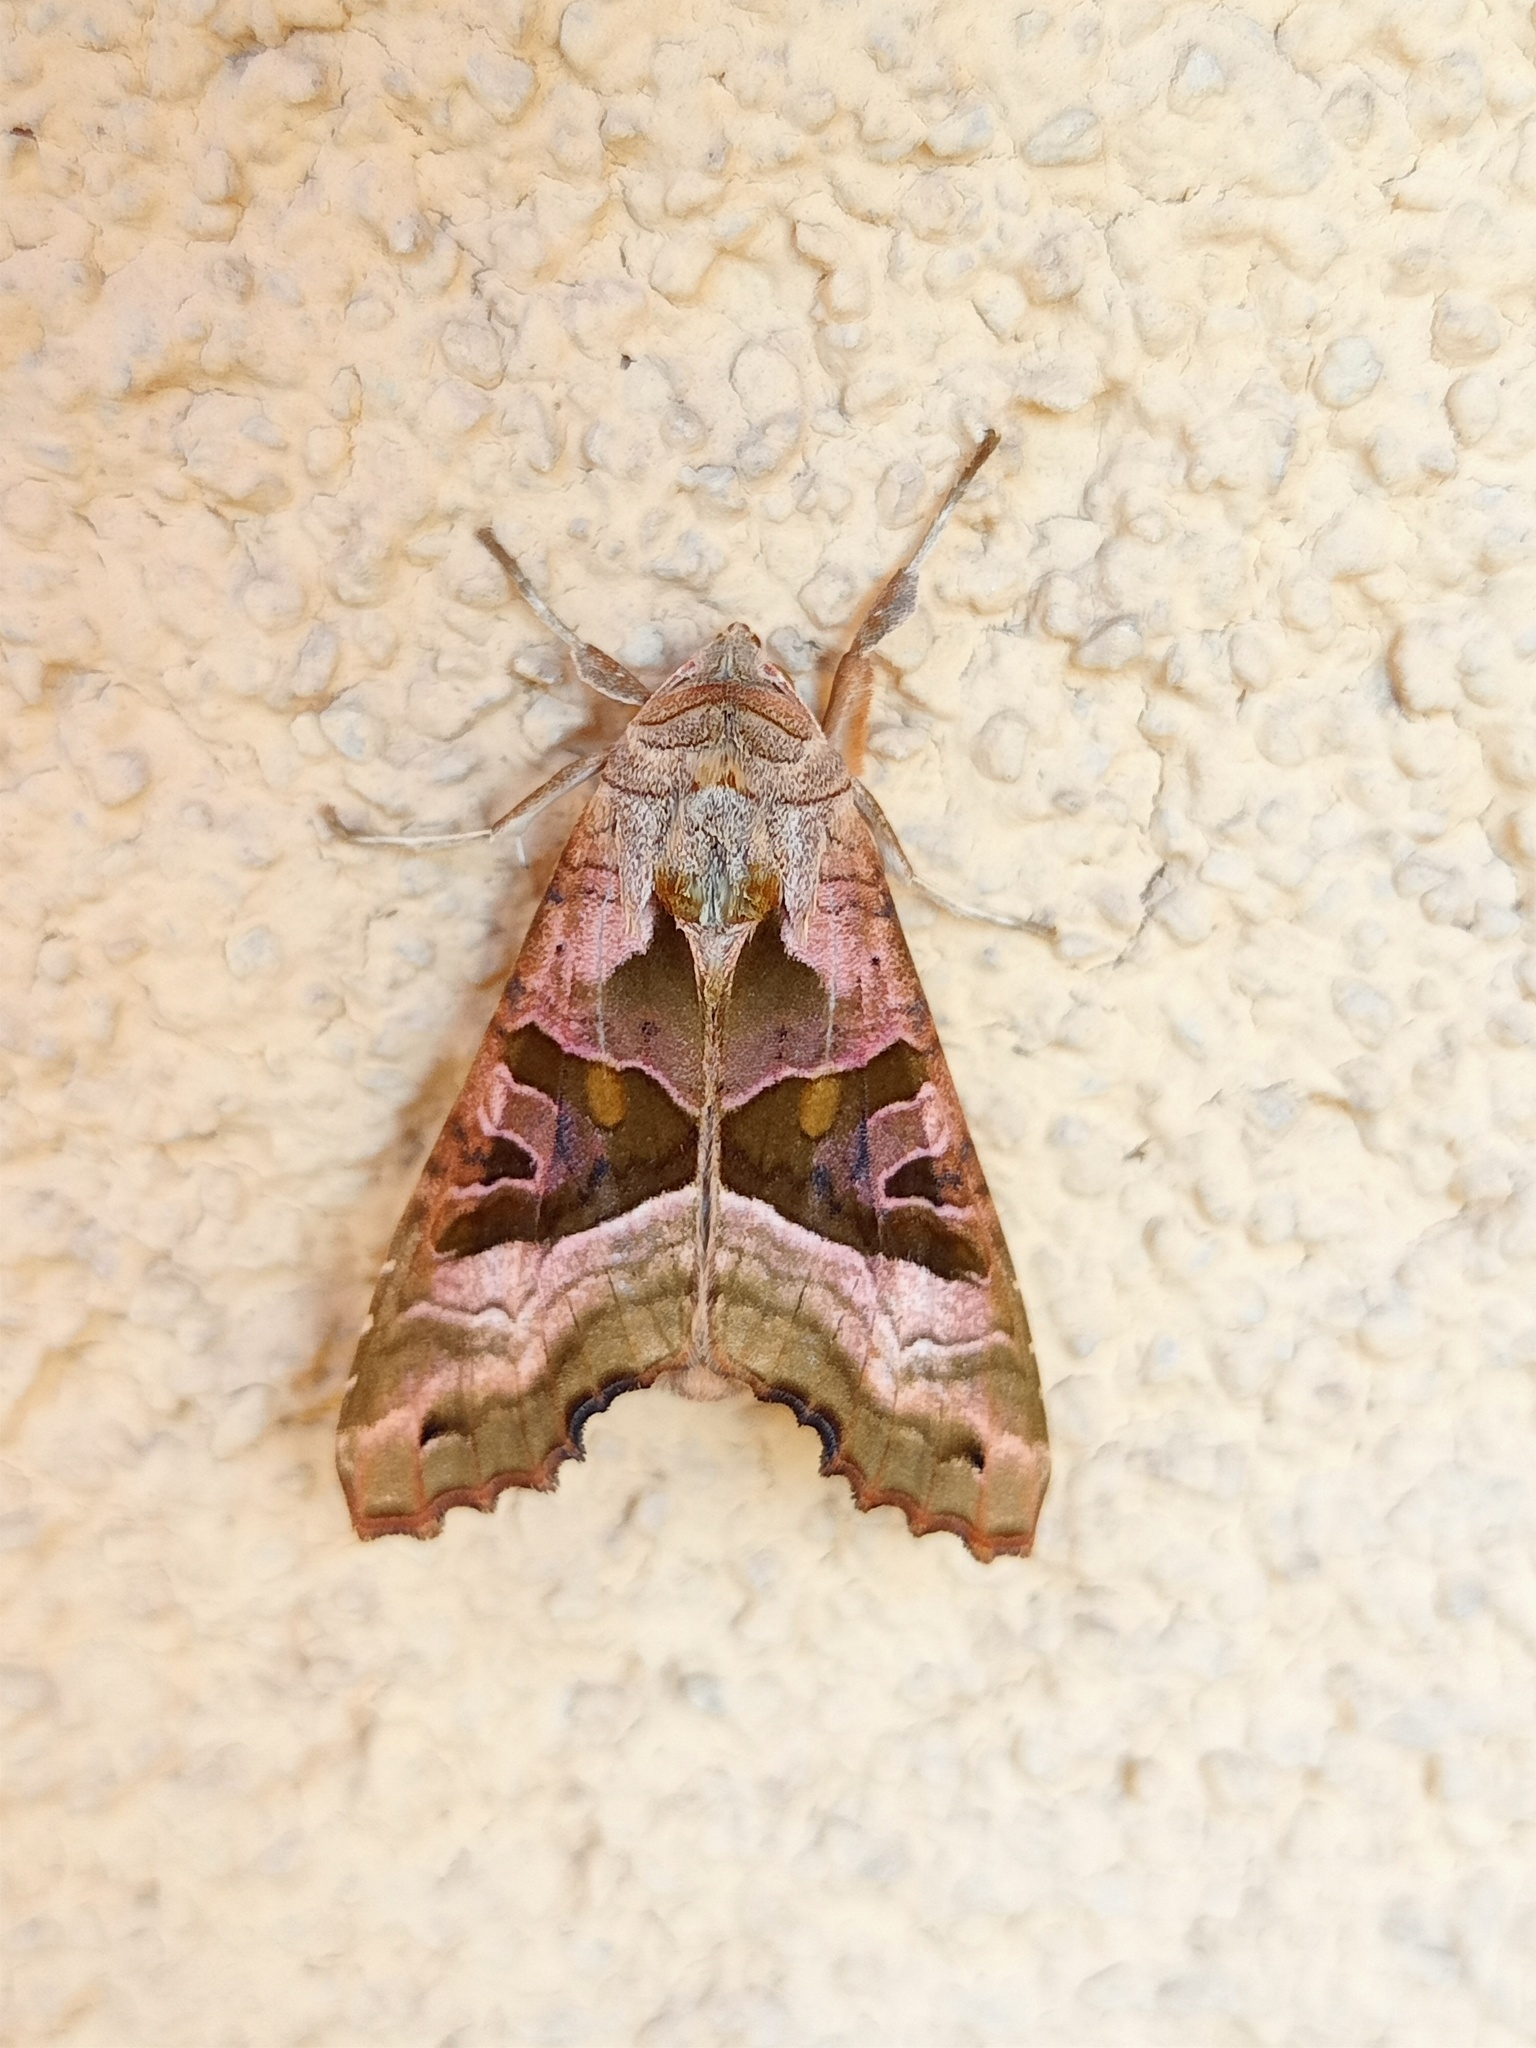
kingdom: Animalia
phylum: Arthropoda
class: Insecta
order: Lepidoptera
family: Noctuidae
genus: Phlogophora
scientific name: Phlogophora meticulosa
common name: Angle shades
